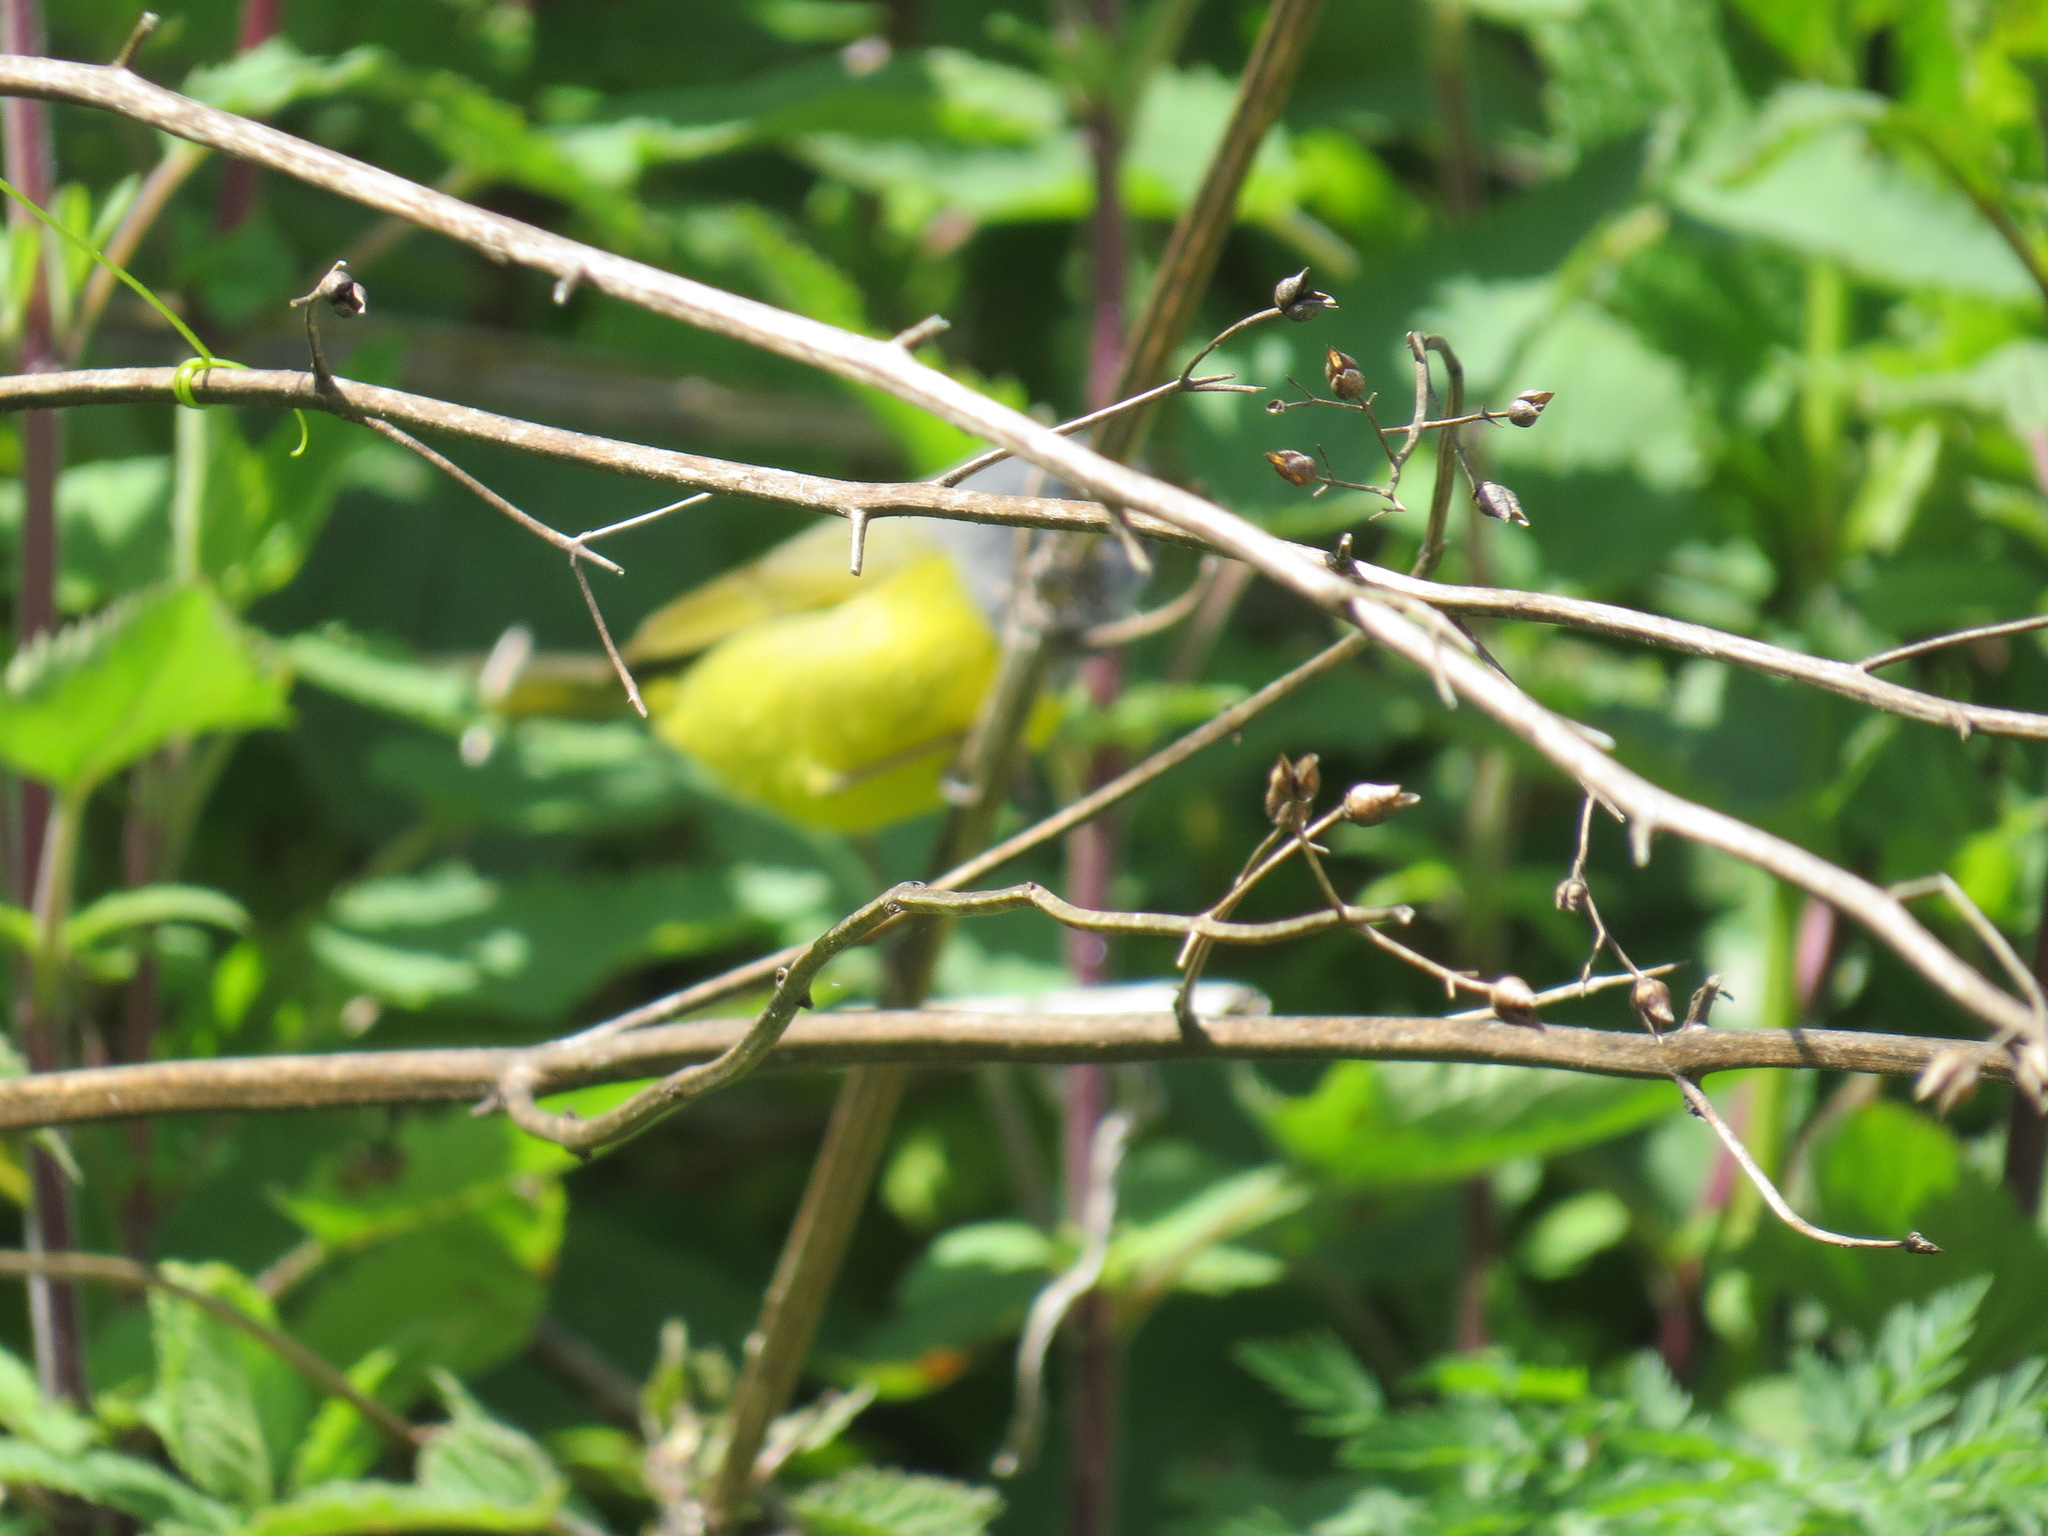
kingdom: Animalia
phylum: Chordata
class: Aves
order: Passeriformes
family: Parulidae
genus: Geothlypis
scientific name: Geothlypis tolmiei
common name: Macgillivray's warbler
